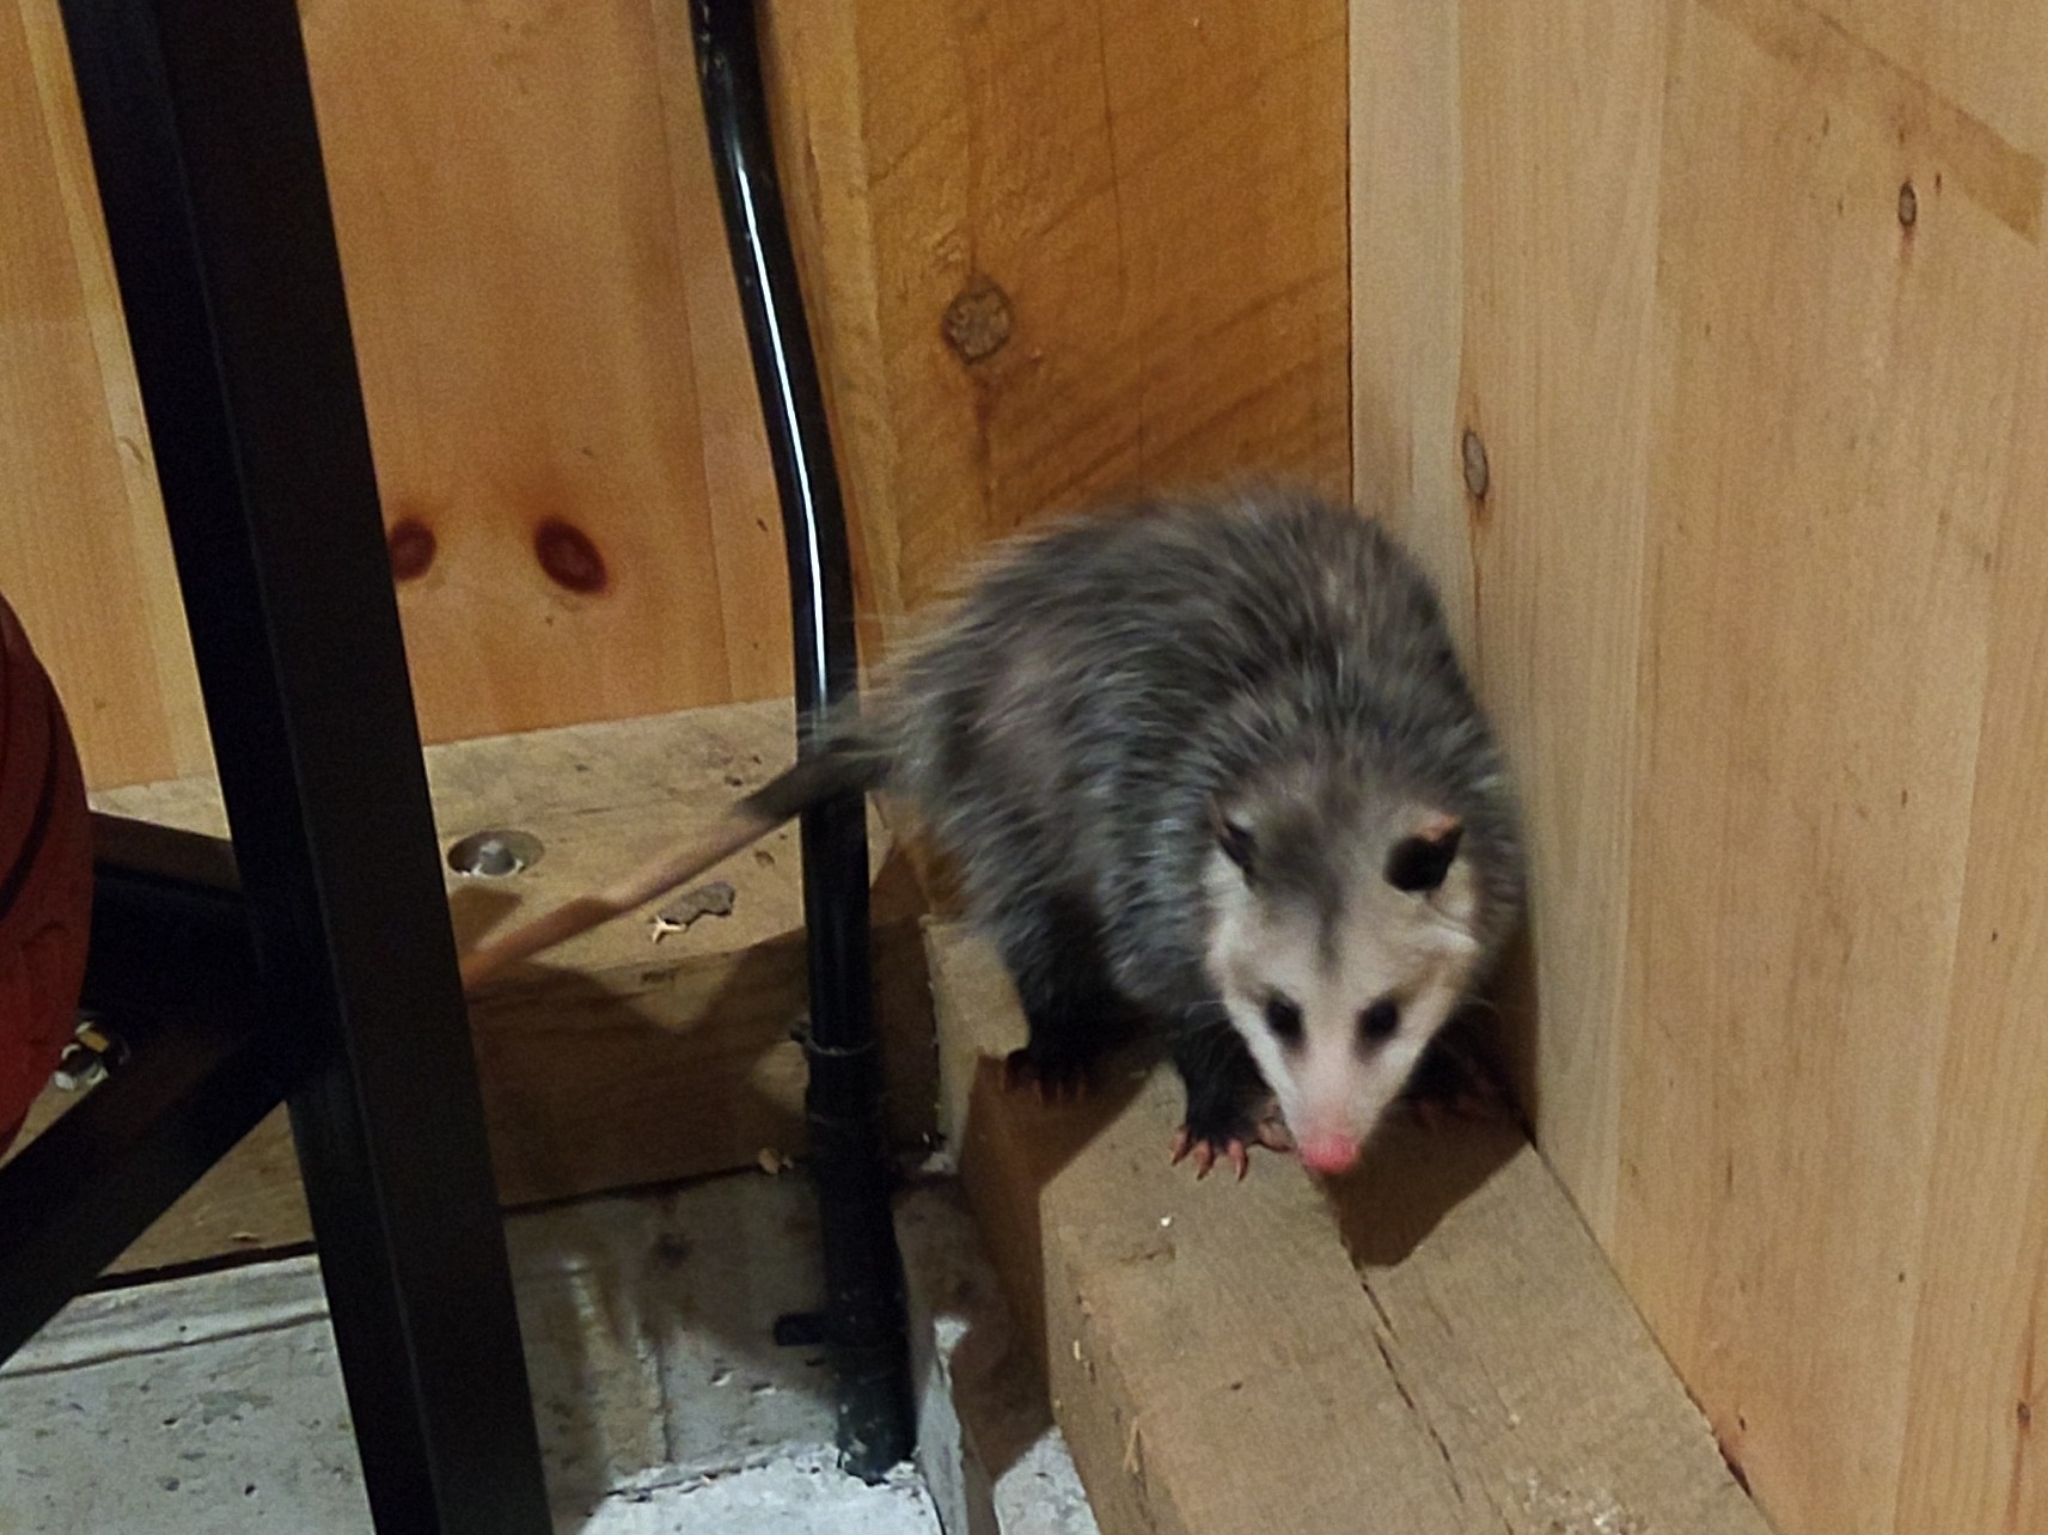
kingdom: Animalia
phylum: Chordata
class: Mammalia
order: Didelphimorphia
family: Didelphidae
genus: Didelphis
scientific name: Didelphis virginiana
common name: Virginia opossum
